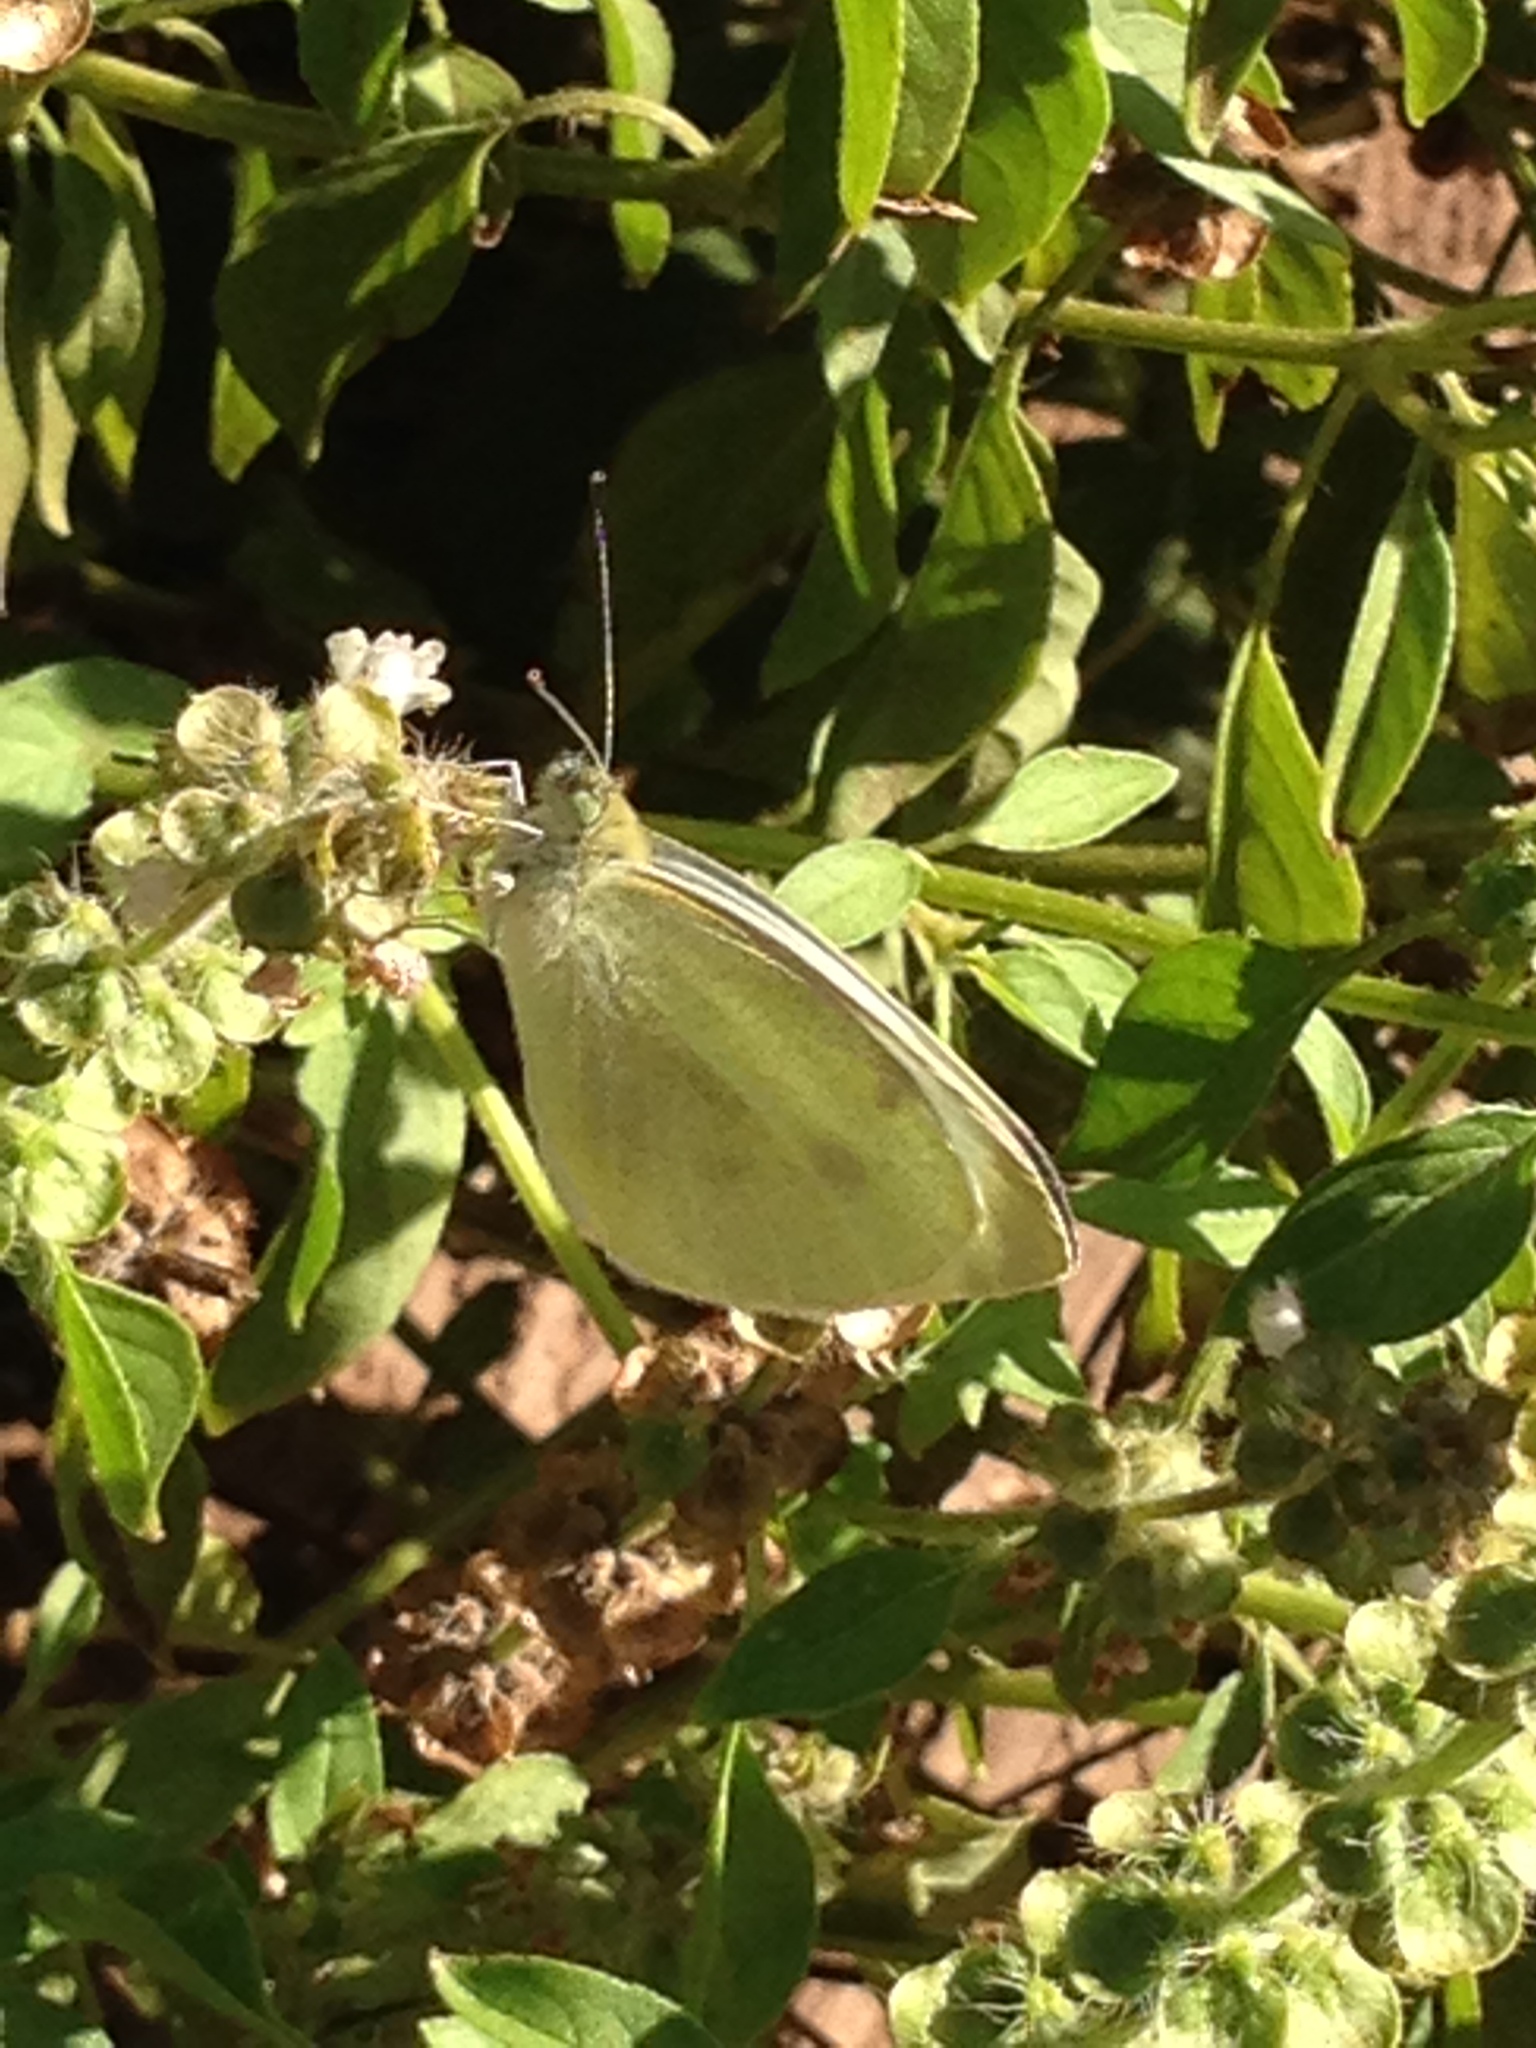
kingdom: Animalia
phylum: Arthropoda
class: Insecta
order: Lepidoptera
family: Pieridae
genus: Pieris
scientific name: Pieris rapae
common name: Small white
